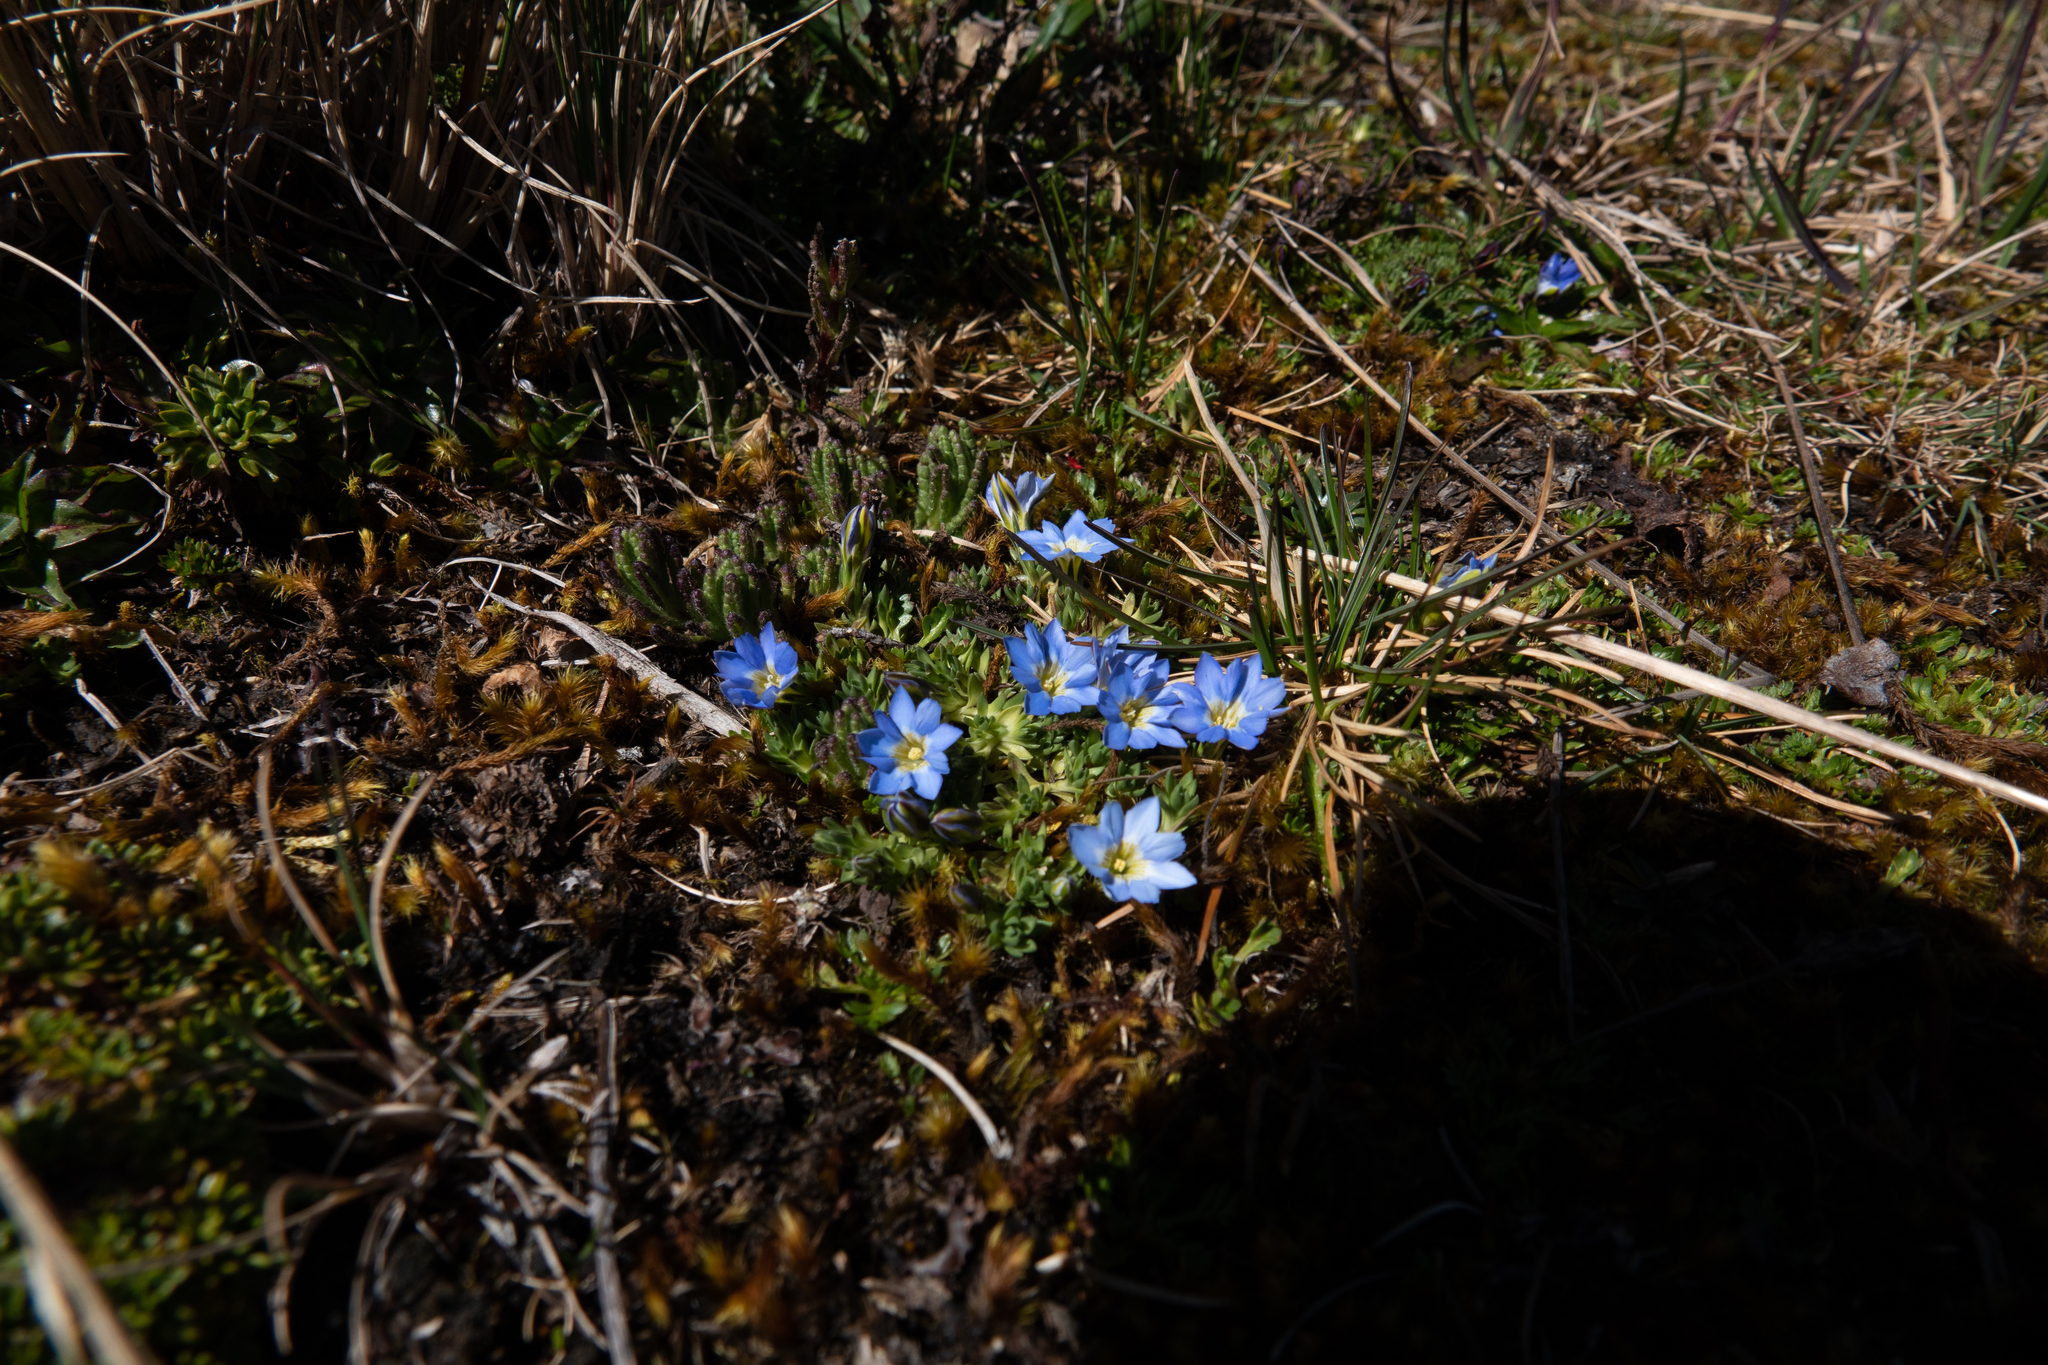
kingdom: Plantae
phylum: Tracheophyta
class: Magnoliopsida
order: Gentianales
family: Gentianaceae
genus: Gentiana
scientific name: Gentiana sedifolia
